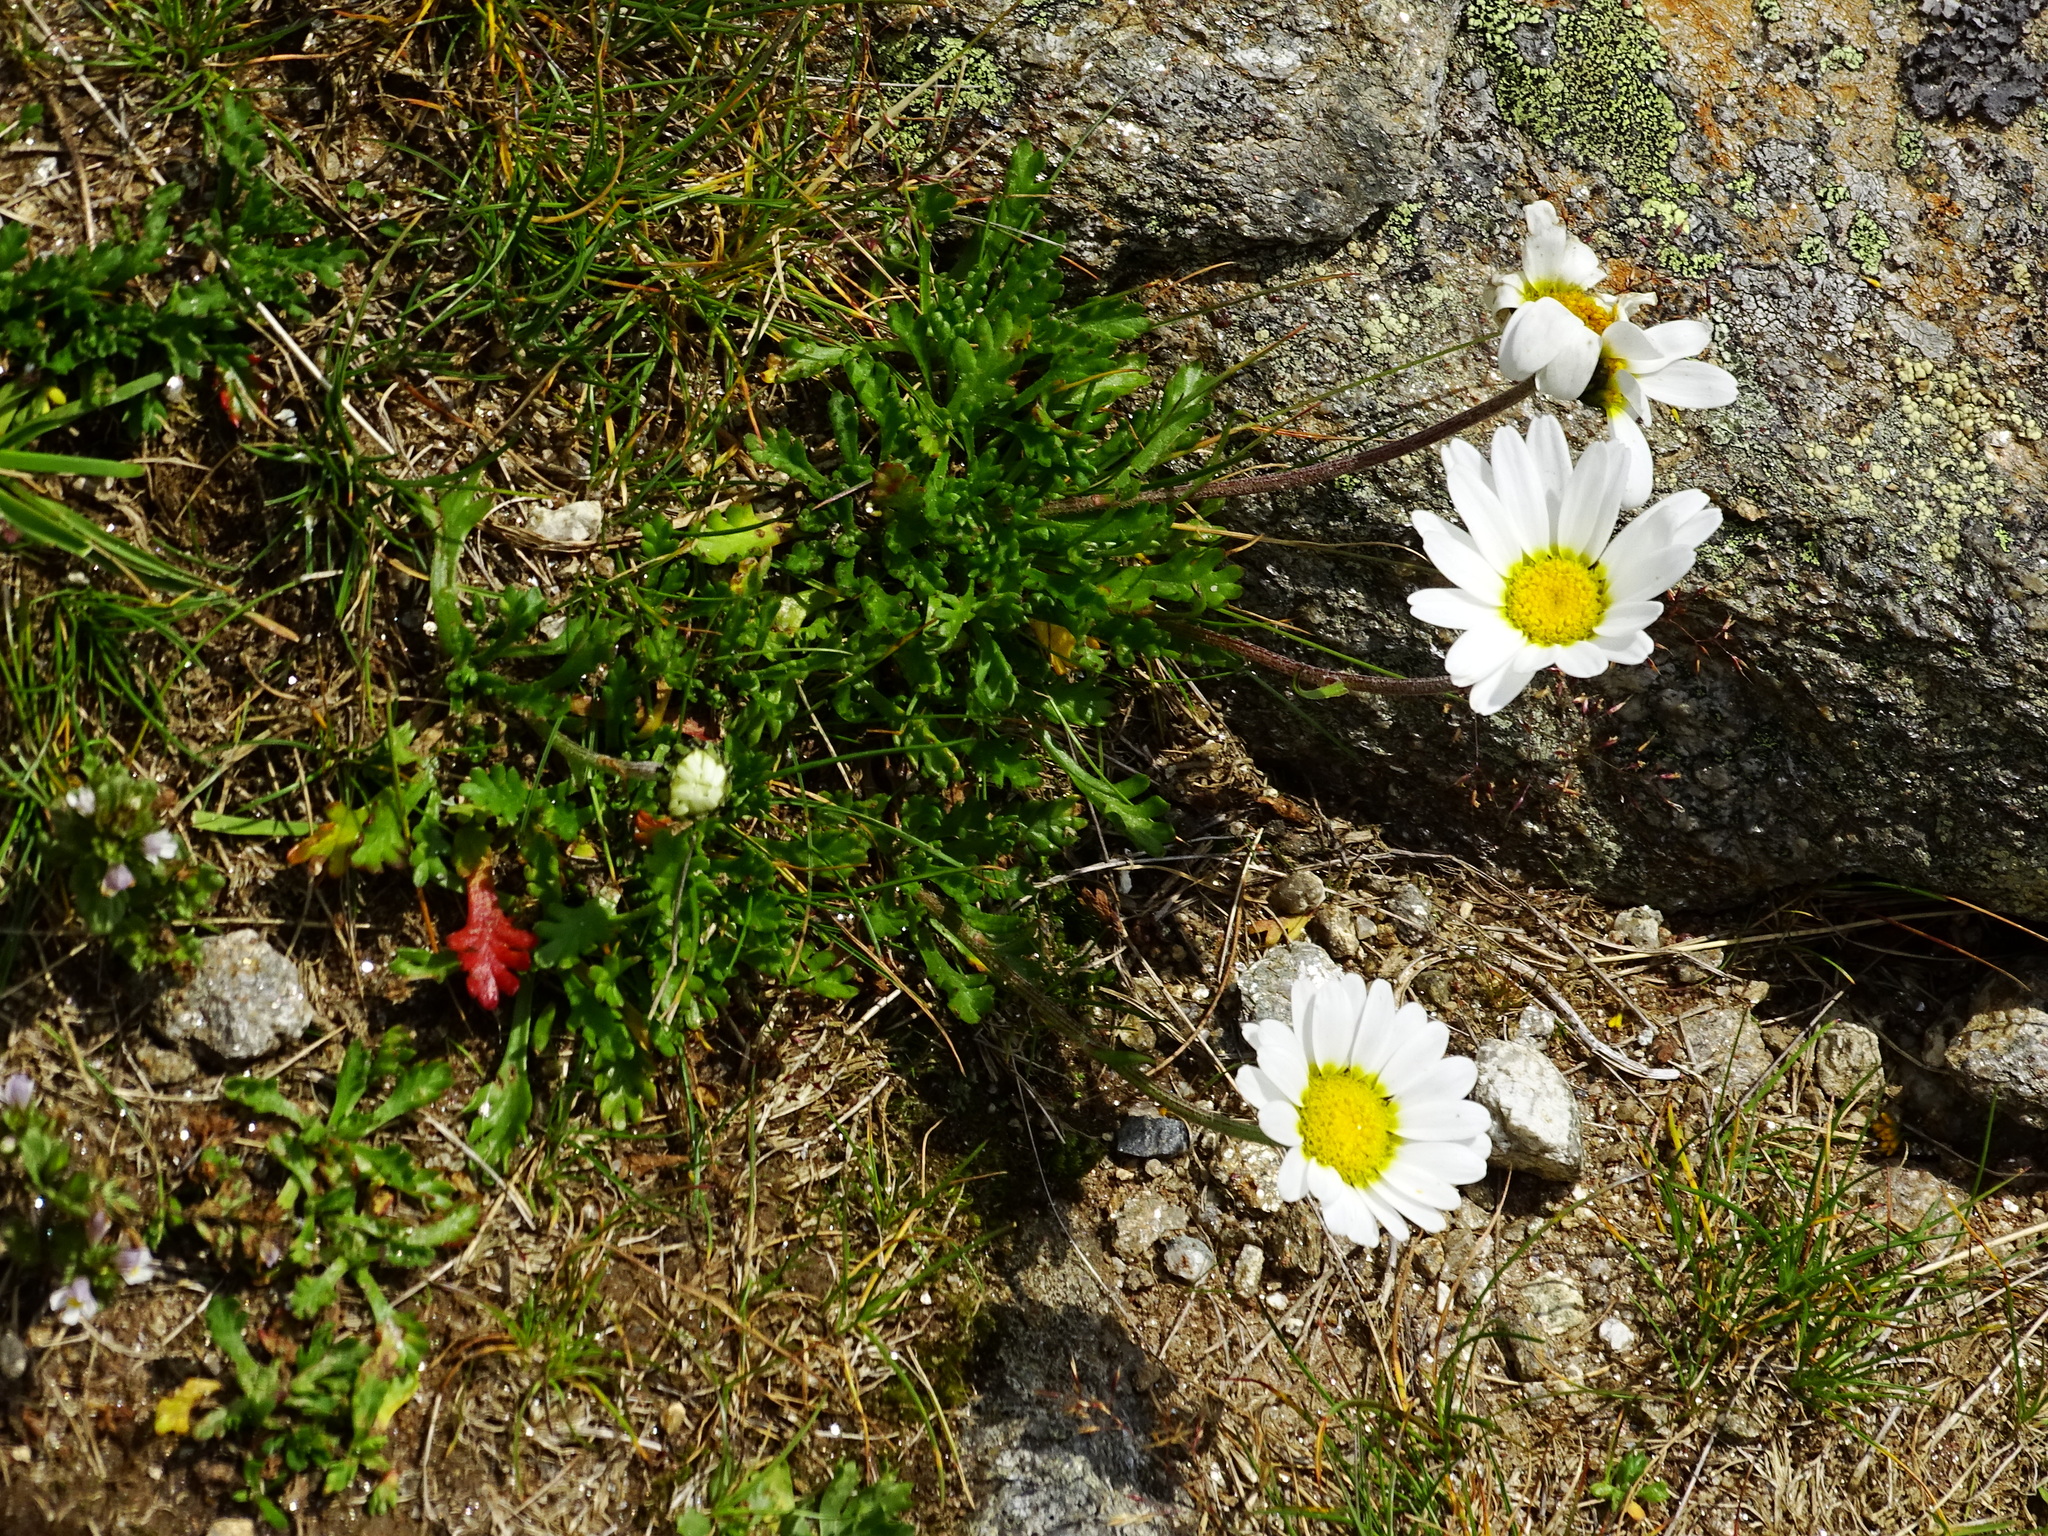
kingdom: Plantae
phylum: Tracheophyta
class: Magnoliopsida
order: Asterales
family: Asteraceae
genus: Leucanthemopsis
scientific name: Leucanthemopsis alpina
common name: Alpine moon daisy
